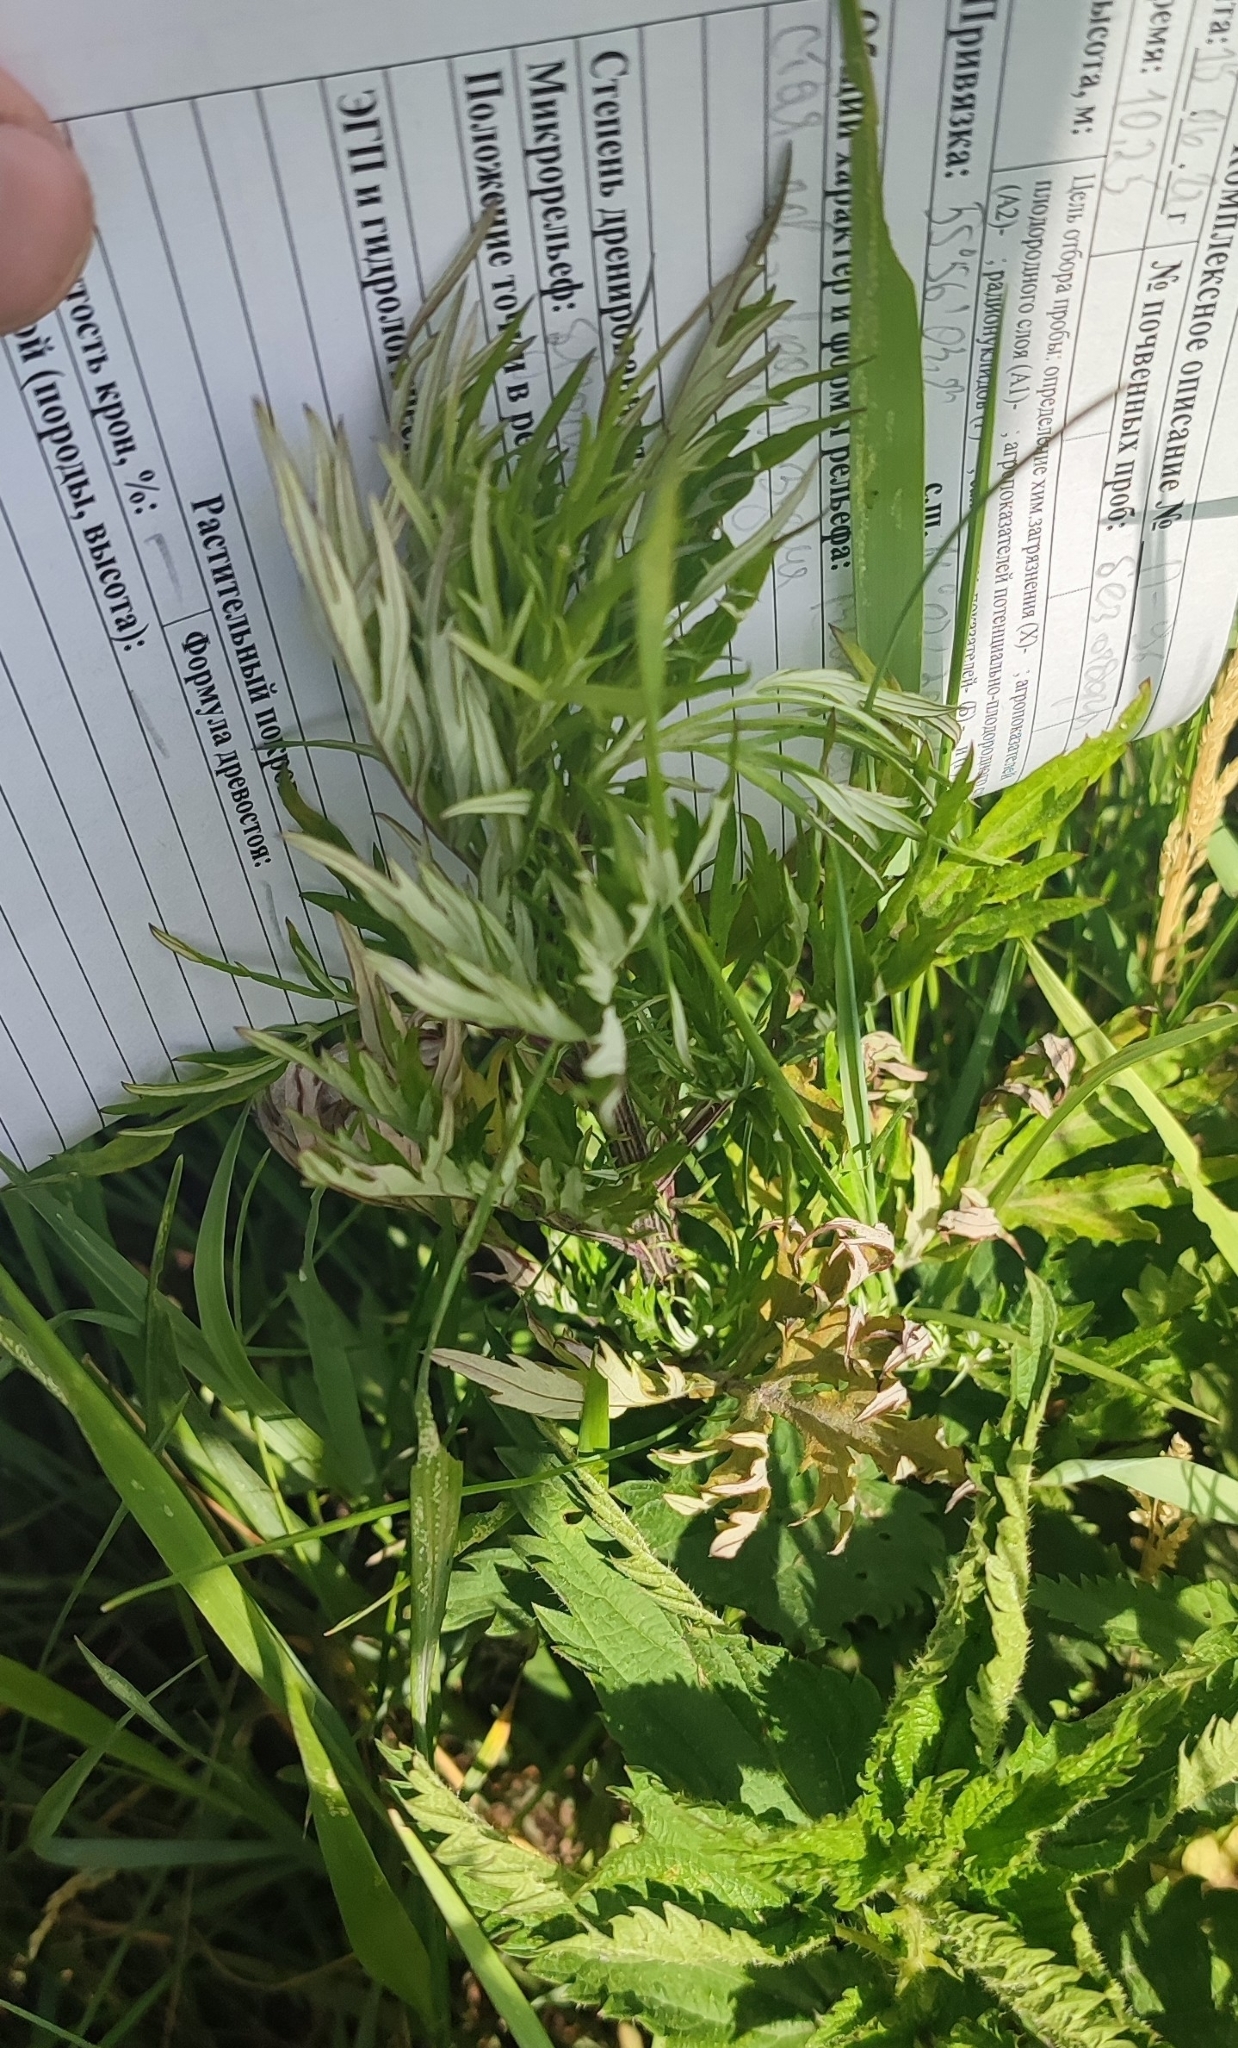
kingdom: Plantae
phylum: Tracheophyta
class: Magnoliopsida
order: Asterales
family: Asteraceae
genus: Artemisia
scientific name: Artemisia vulgaris
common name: Mugwort
